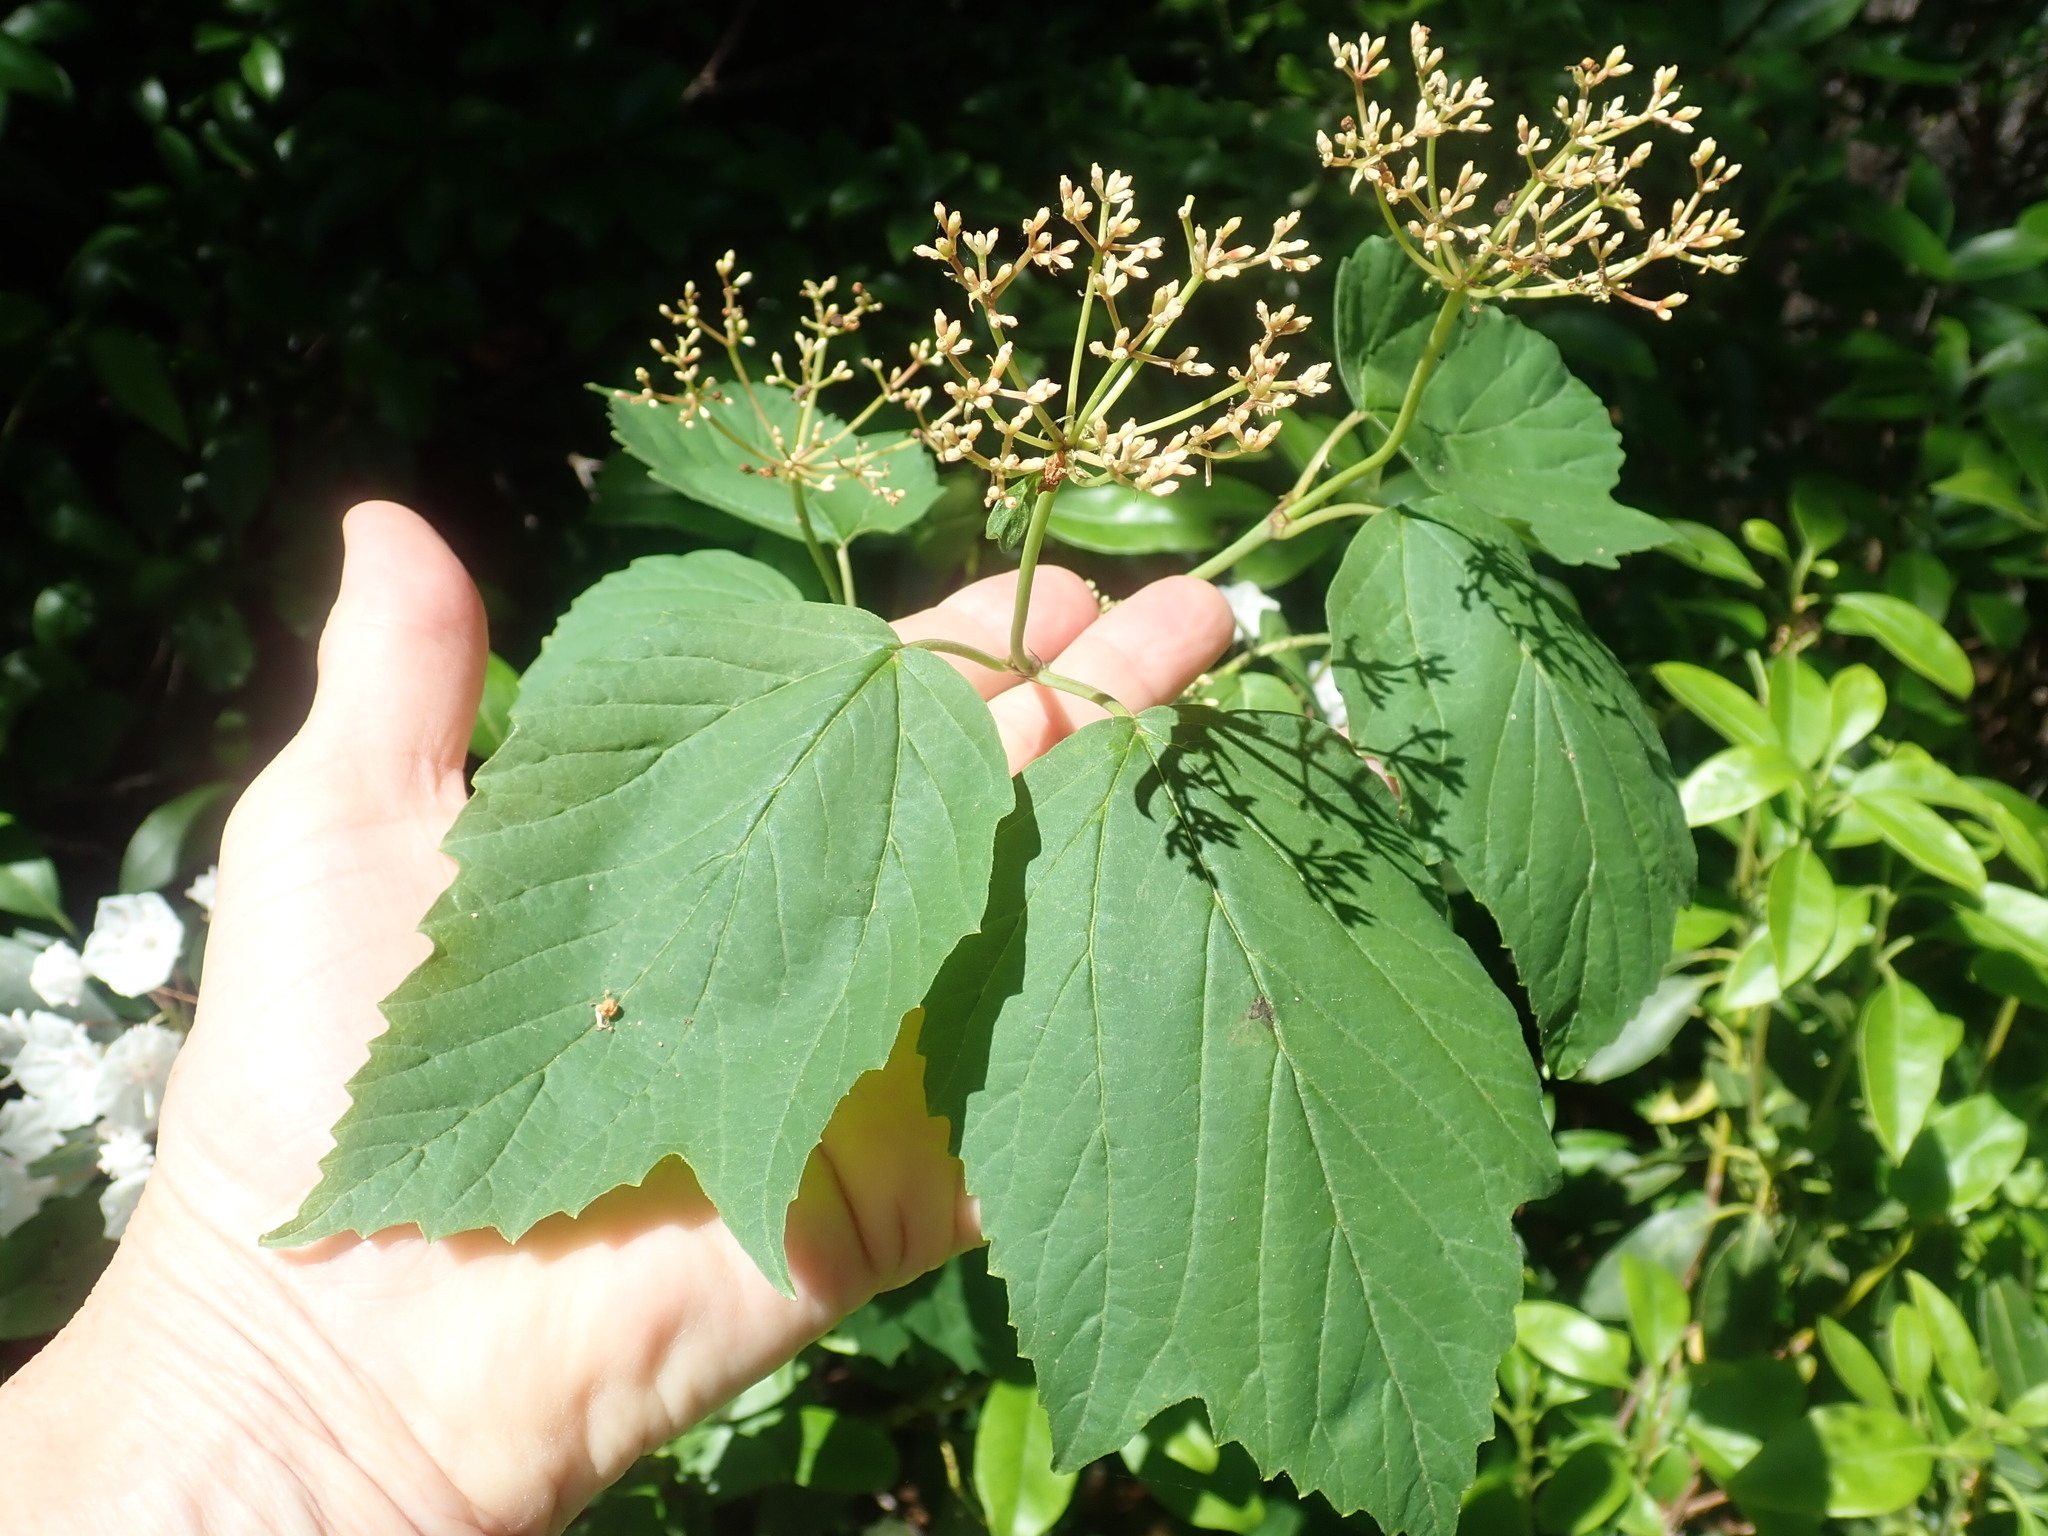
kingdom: Plantae
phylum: Tracheophyta
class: Magnoliopsida
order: Dipsacales
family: Viburnaceae
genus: Viburnum
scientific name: Viburnum acerifolium
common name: Dockmackie
